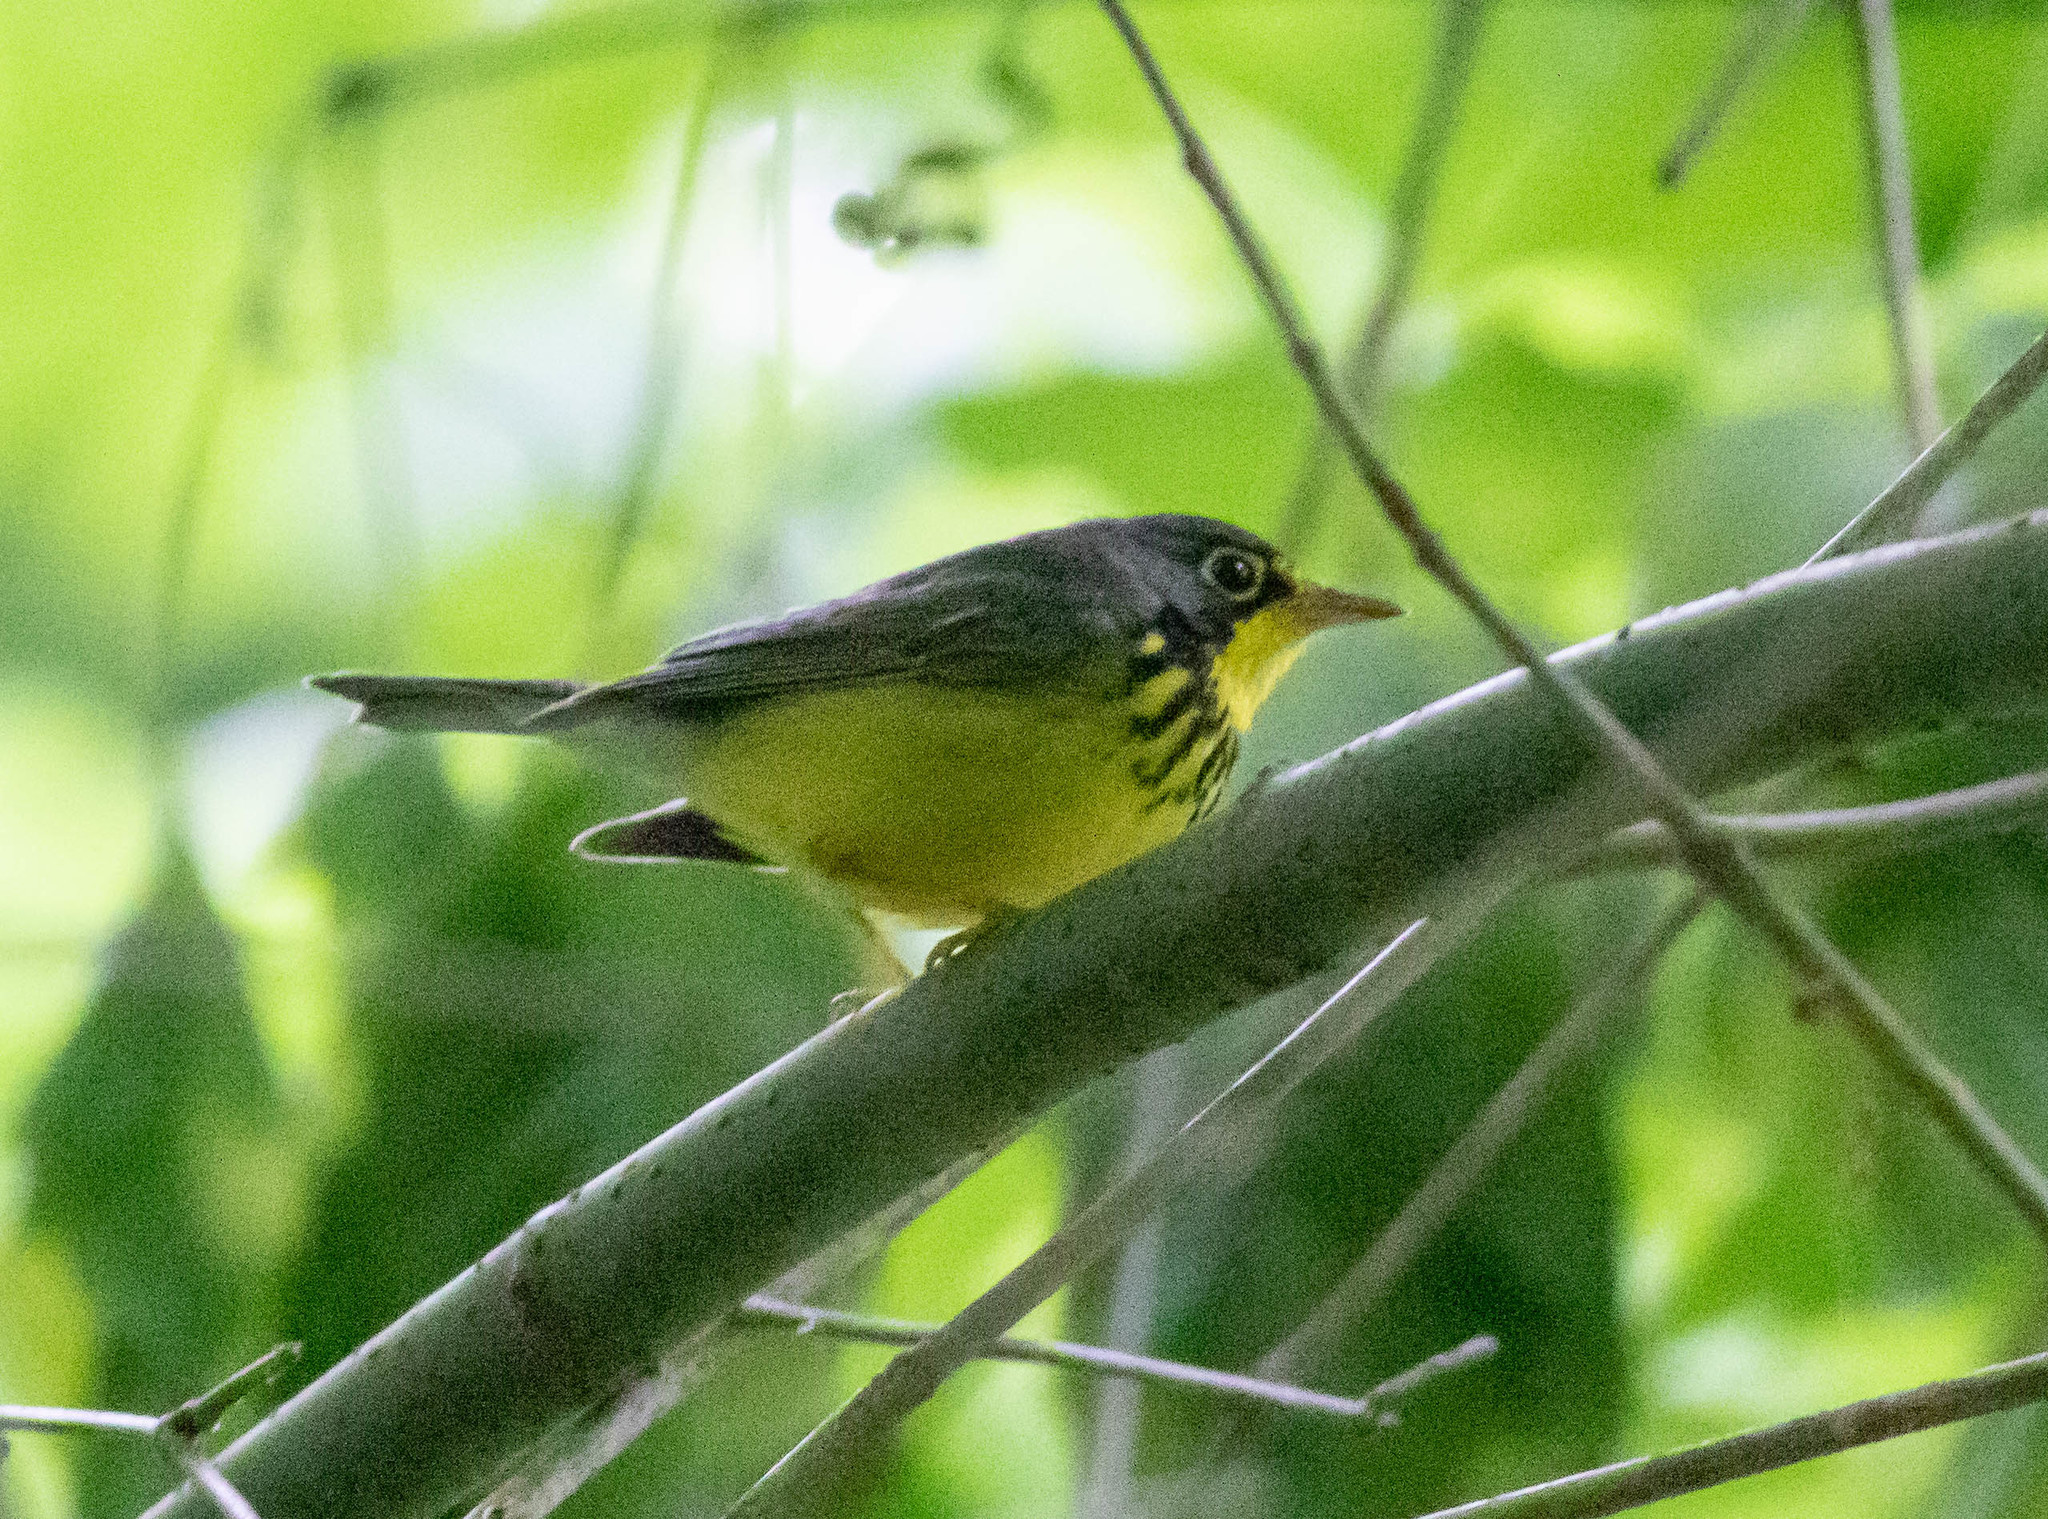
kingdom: Animalia
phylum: Chordata
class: Aves
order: Passeriformes
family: Parulidae
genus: Cardellina
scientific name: Cardellina canadensis
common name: Canada warbler
